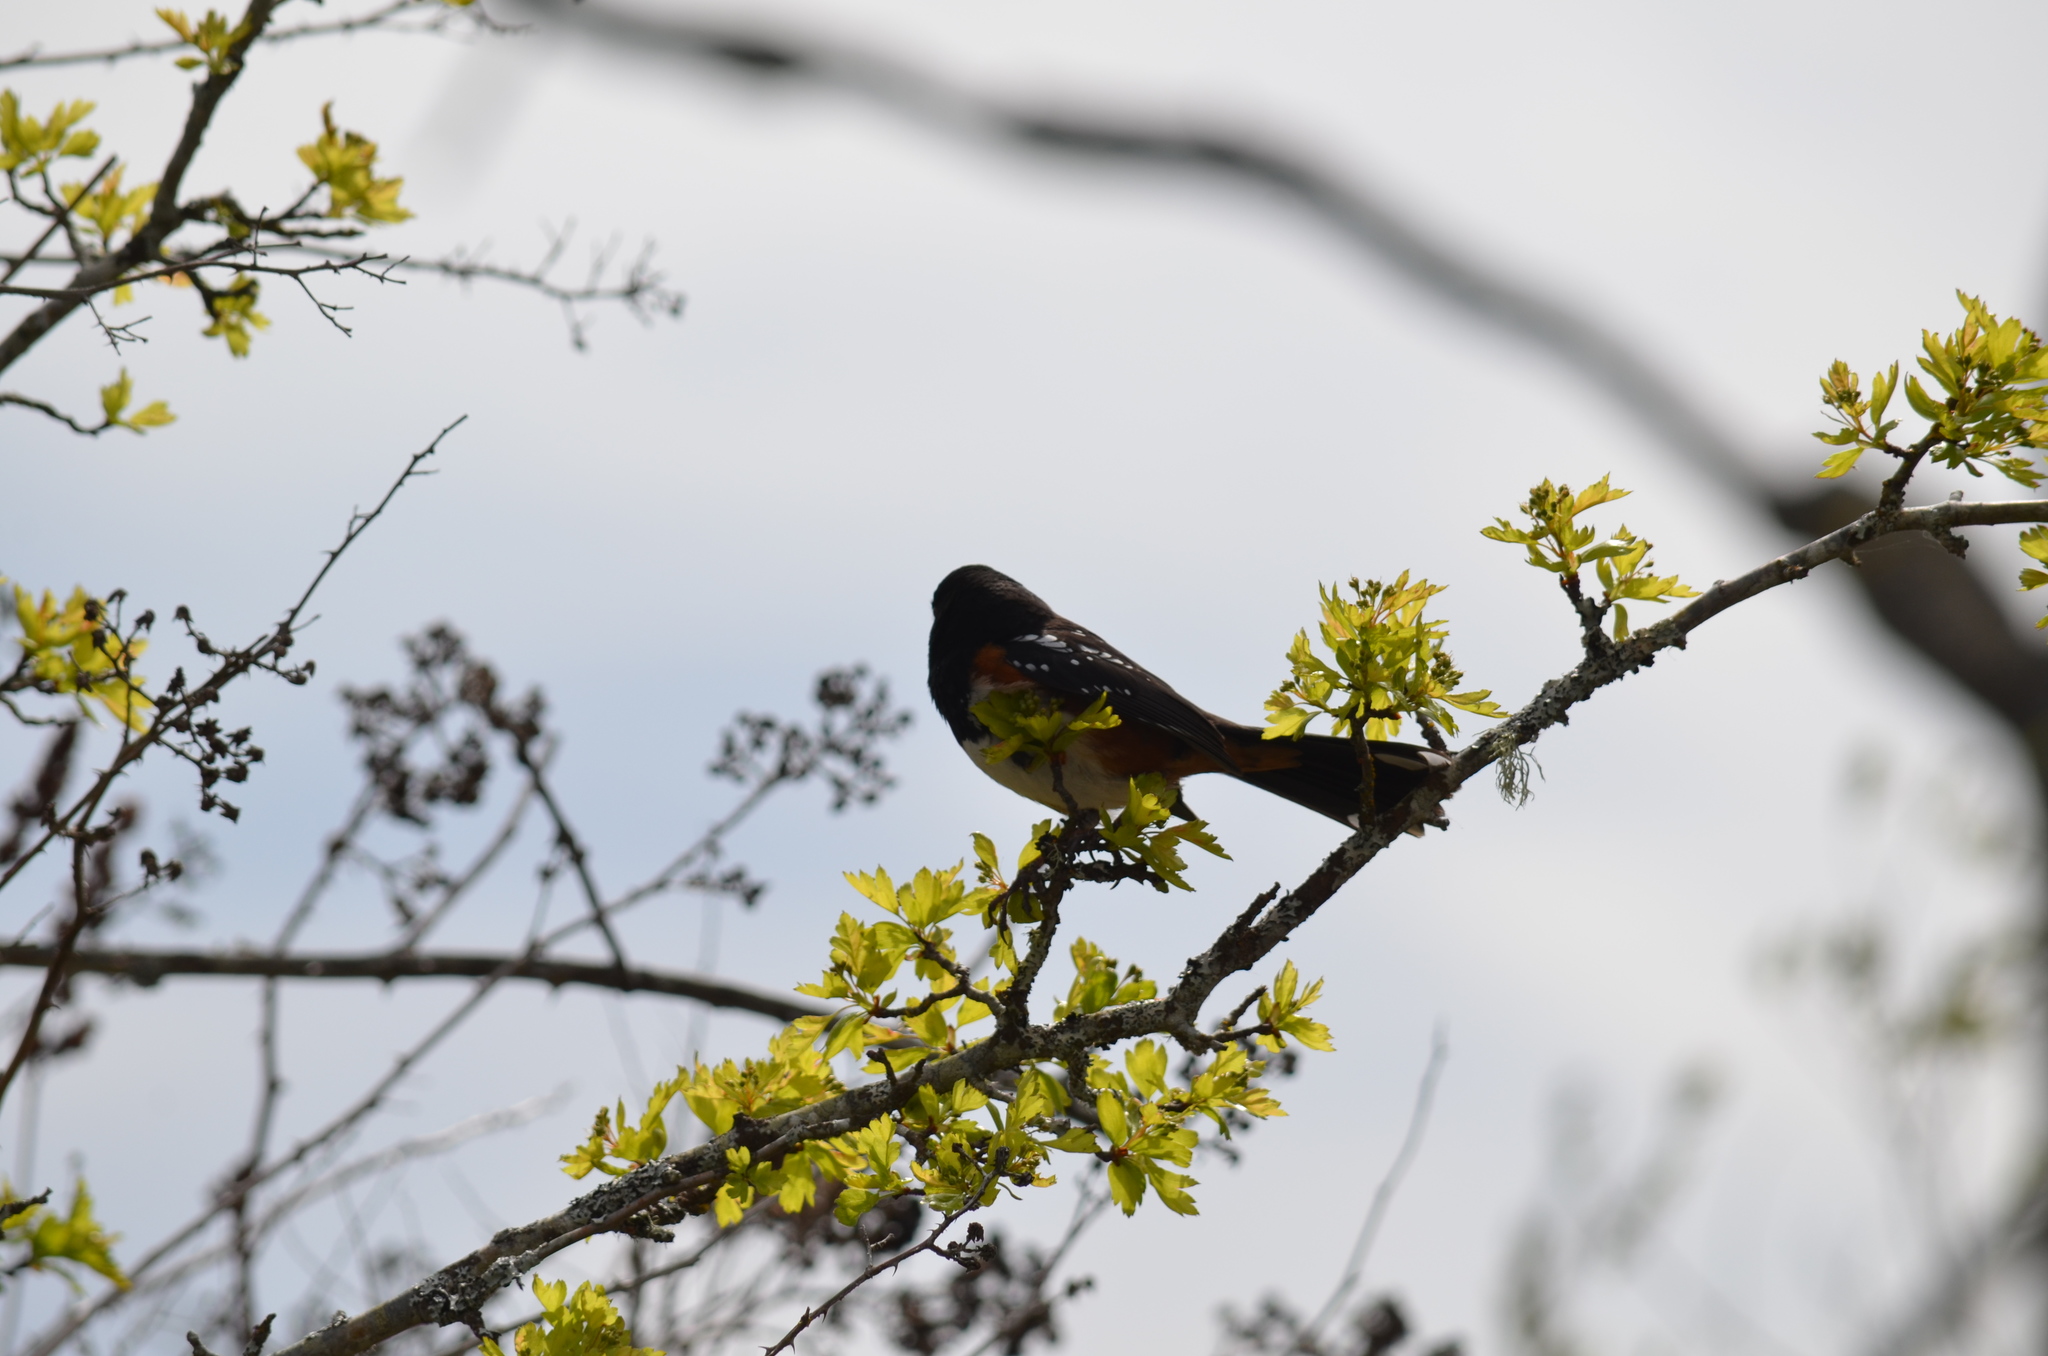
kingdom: Animalia
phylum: Chordata
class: Aves
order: Passeriformes
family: Passerellidae
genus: Pipilo
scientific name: Pipilo maculatus
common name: Spotted towhee
